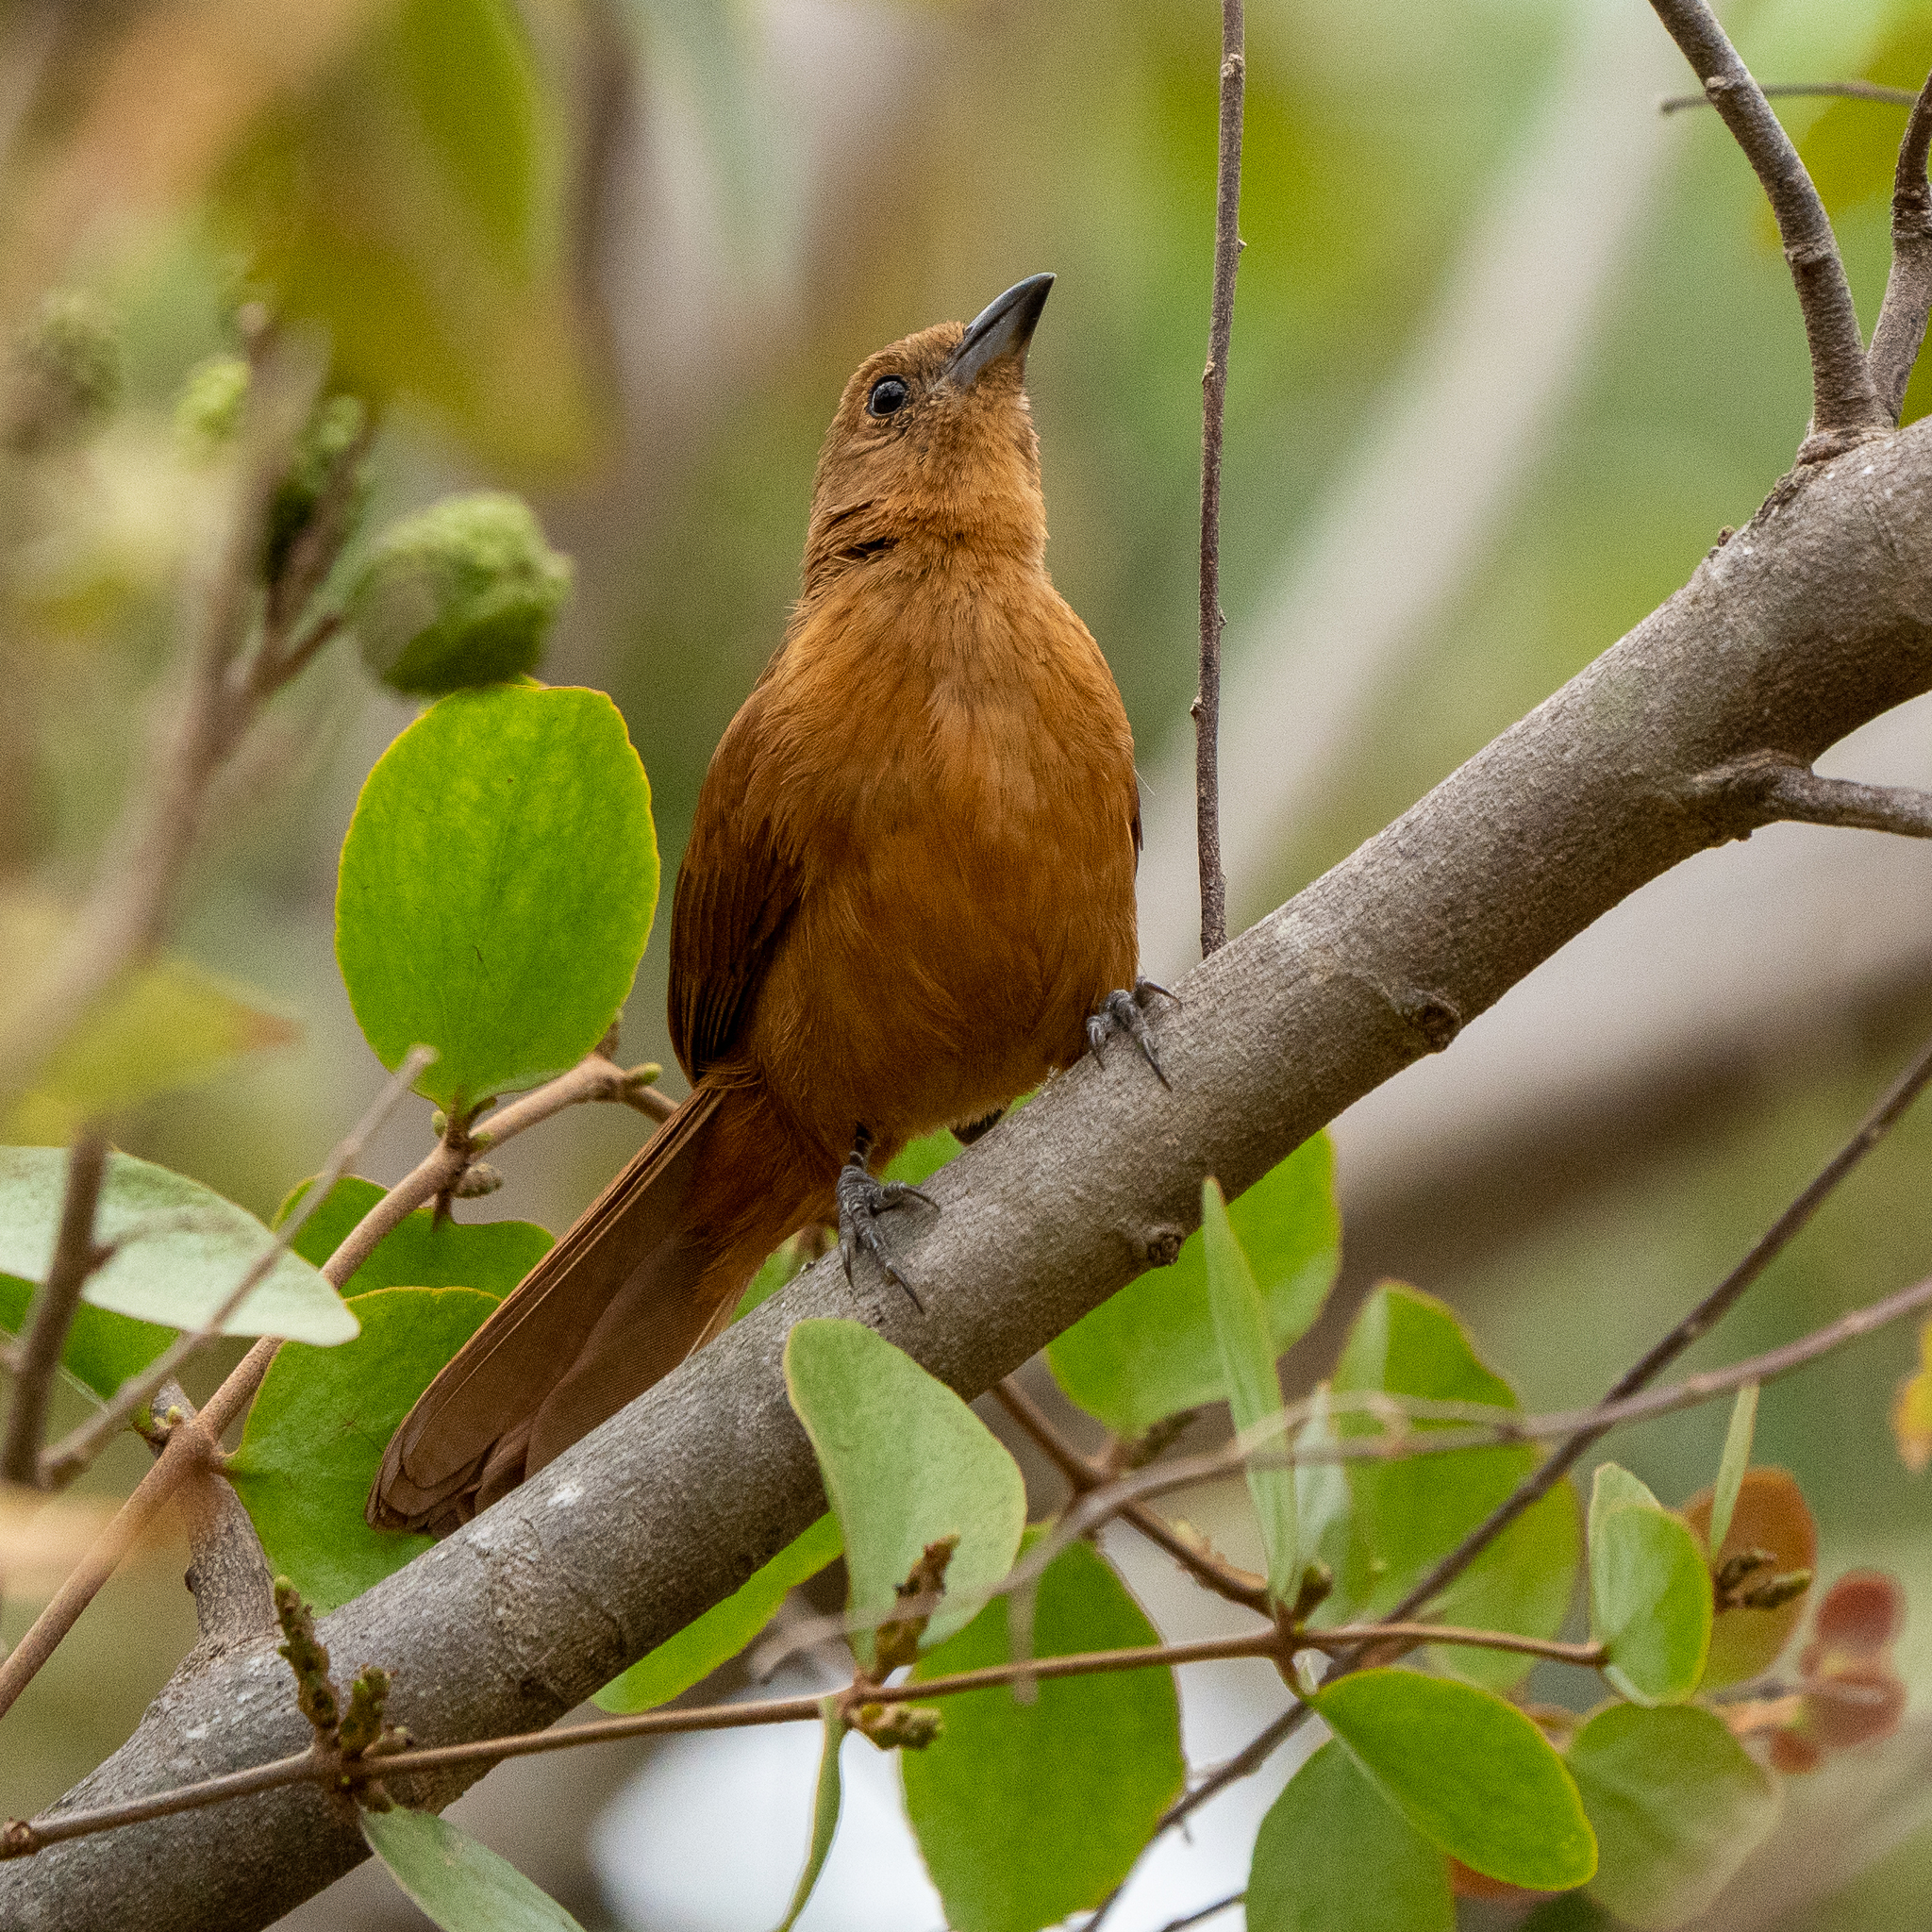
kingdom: Animalia
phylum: Chordata
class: Aves
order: Passeriformes
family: Thraupidae
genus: Tachyphonus
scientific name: Tachyphonus rufus
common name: White-lined tanager
